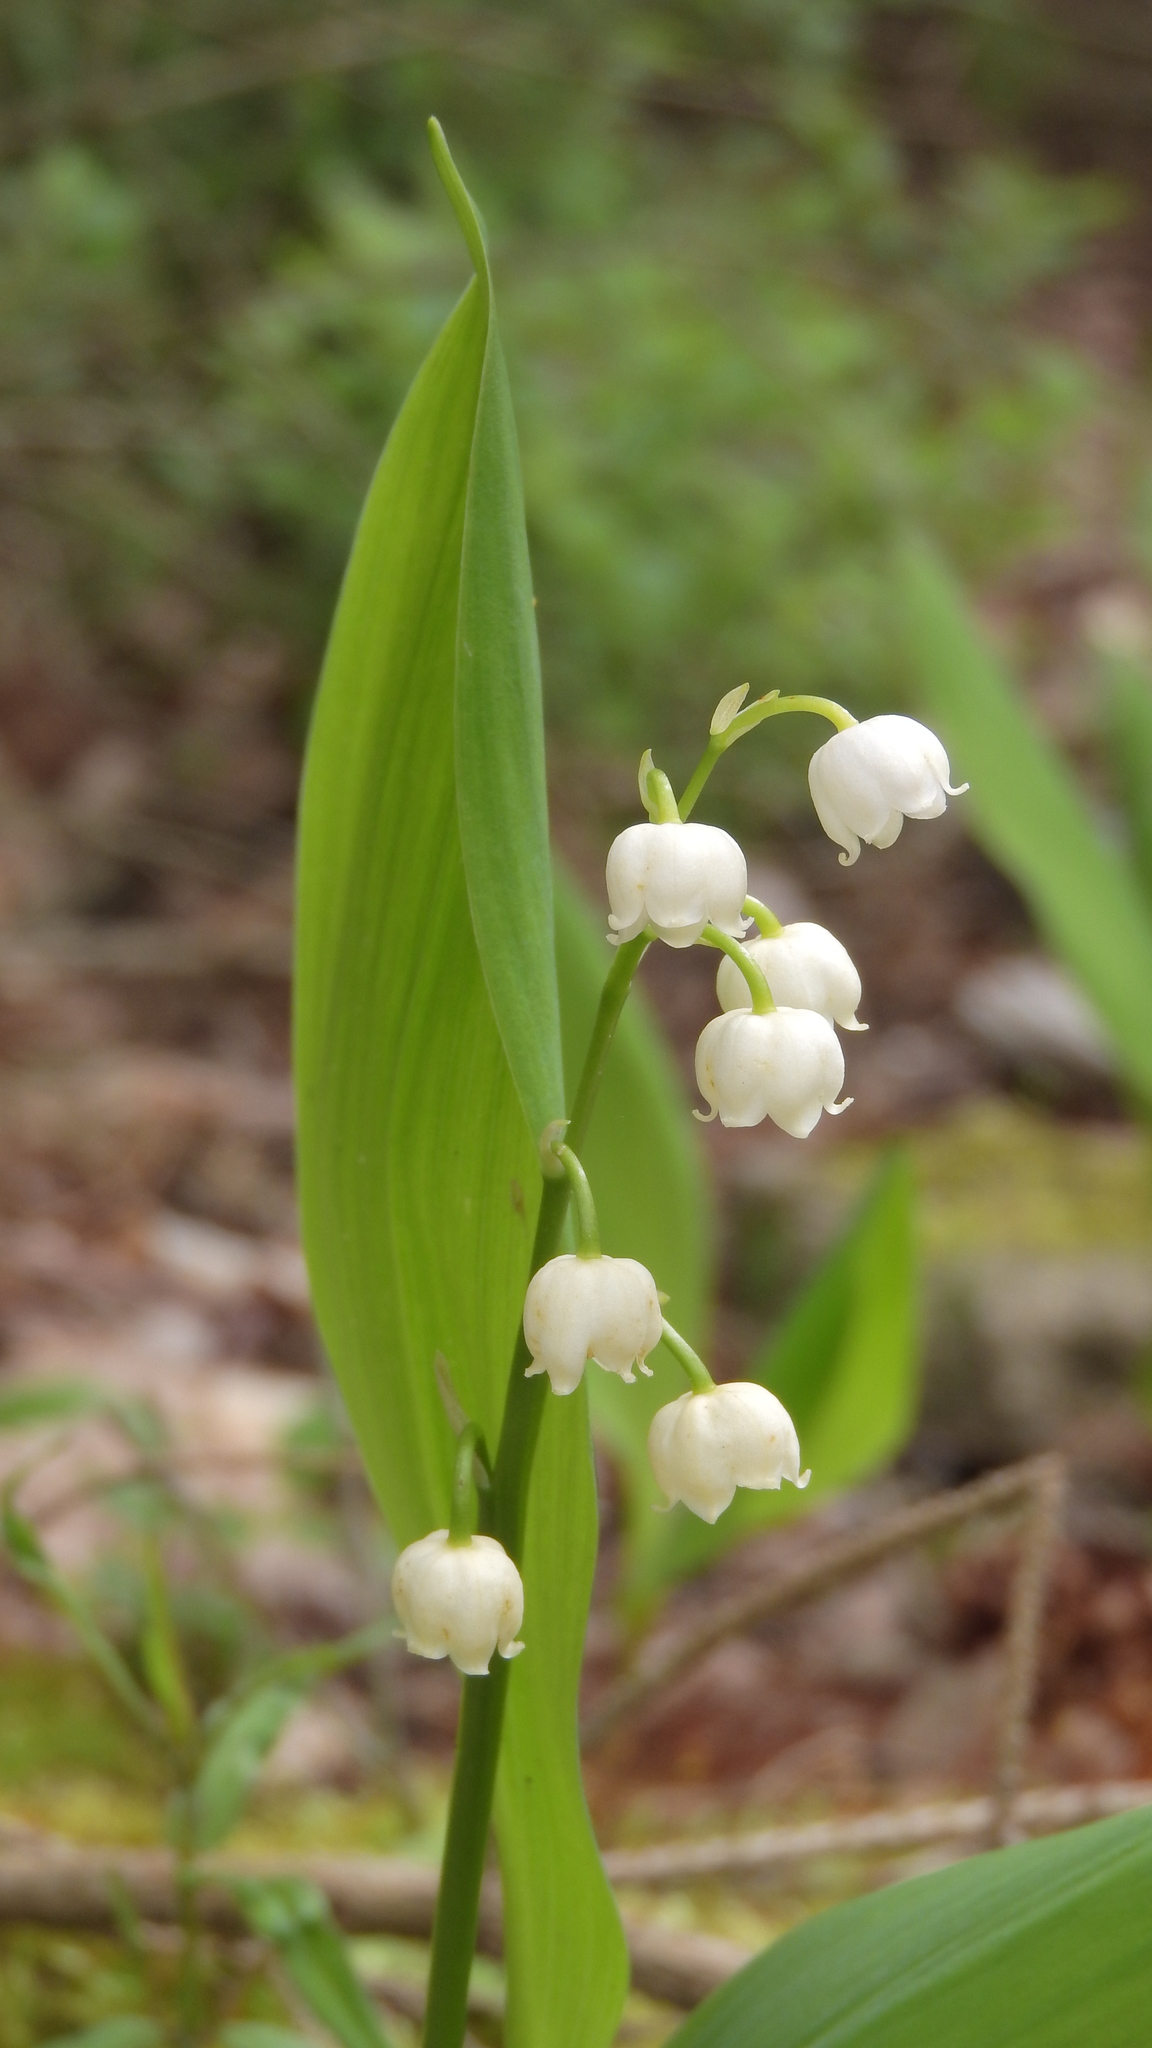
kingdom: Plantae
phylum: Tracheophyta
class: Liliopsida
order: Asparagales
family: Asparagaceae
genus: Convallaria
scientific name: Convallaria majalis
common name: Lily-of-the-valley
